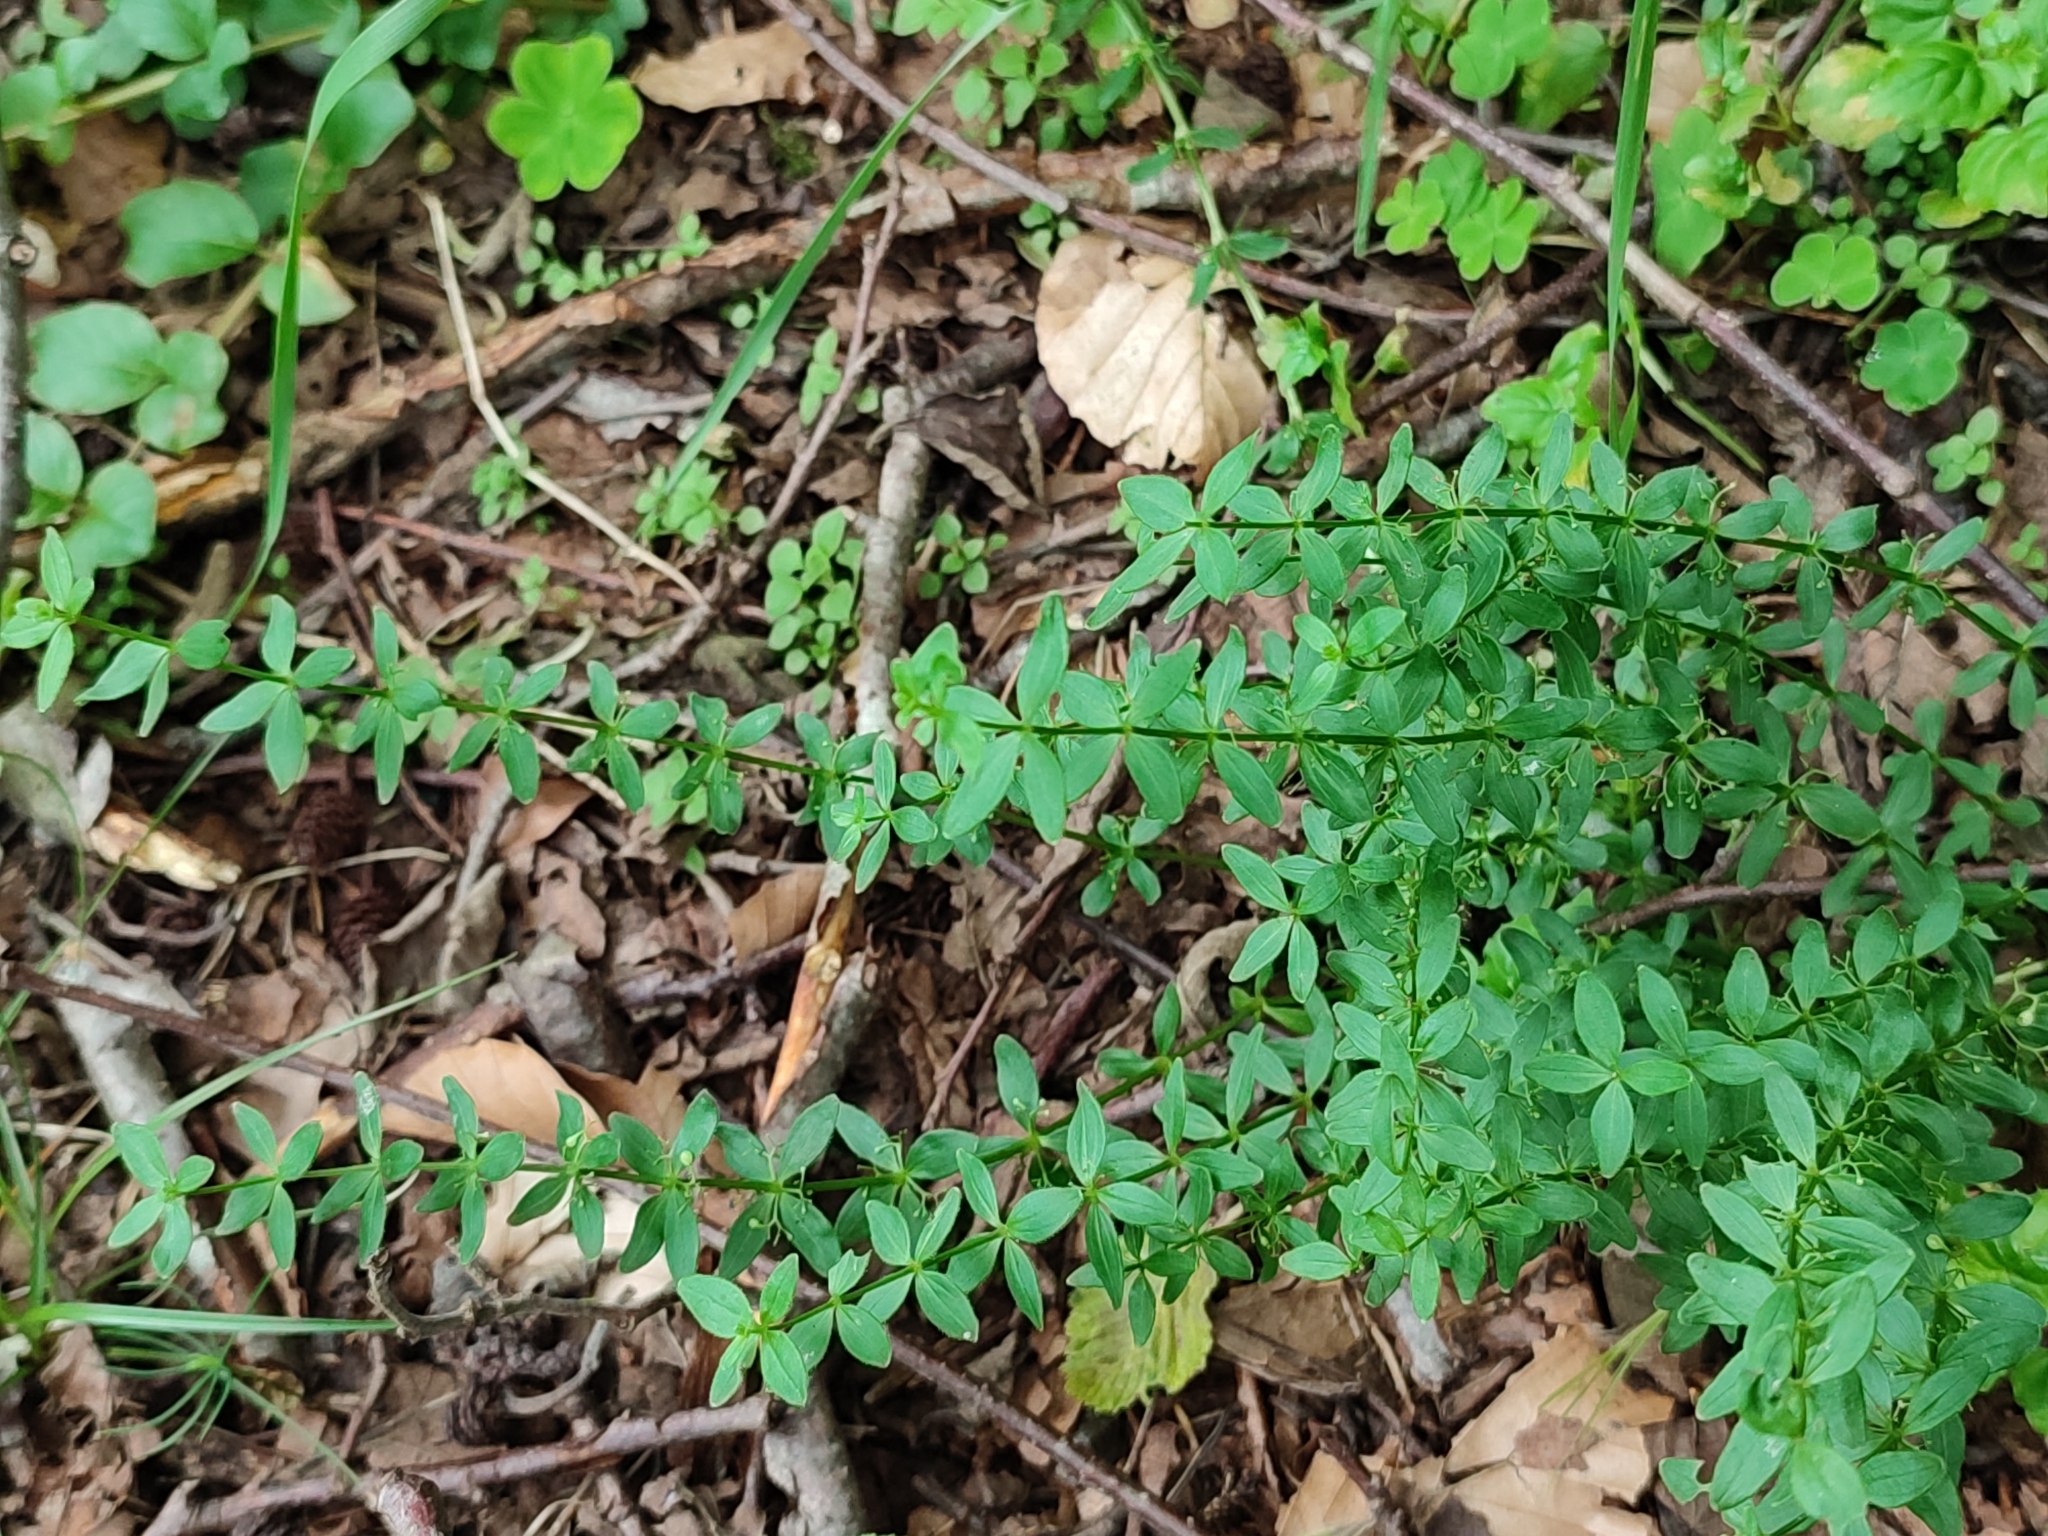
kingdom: Plantae
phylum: Tracheophyta
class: Magnoliopsida
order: Gentianales
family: Rubiaceae
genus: Cruciata
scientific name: Cruciata glabra
